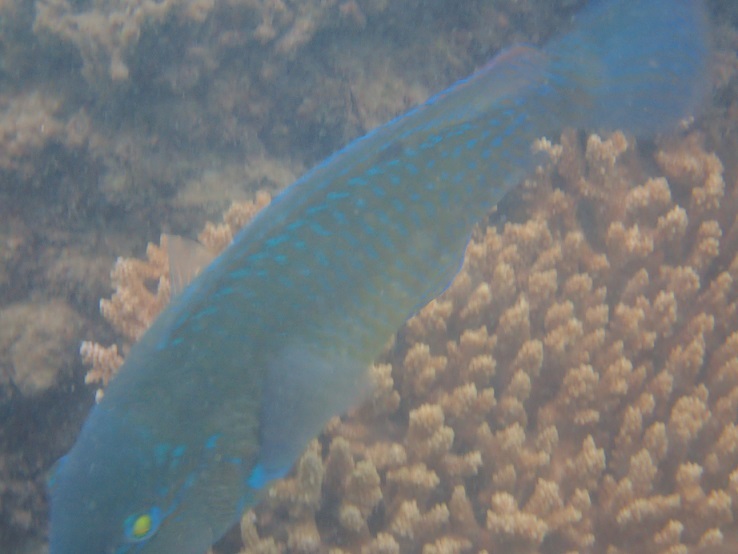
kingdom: Animalia
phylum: Chordata
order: Perciformes
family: Labridae
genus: Choerodon
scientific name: Choerodon schoenleinii
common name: Blackspot tuskfish
